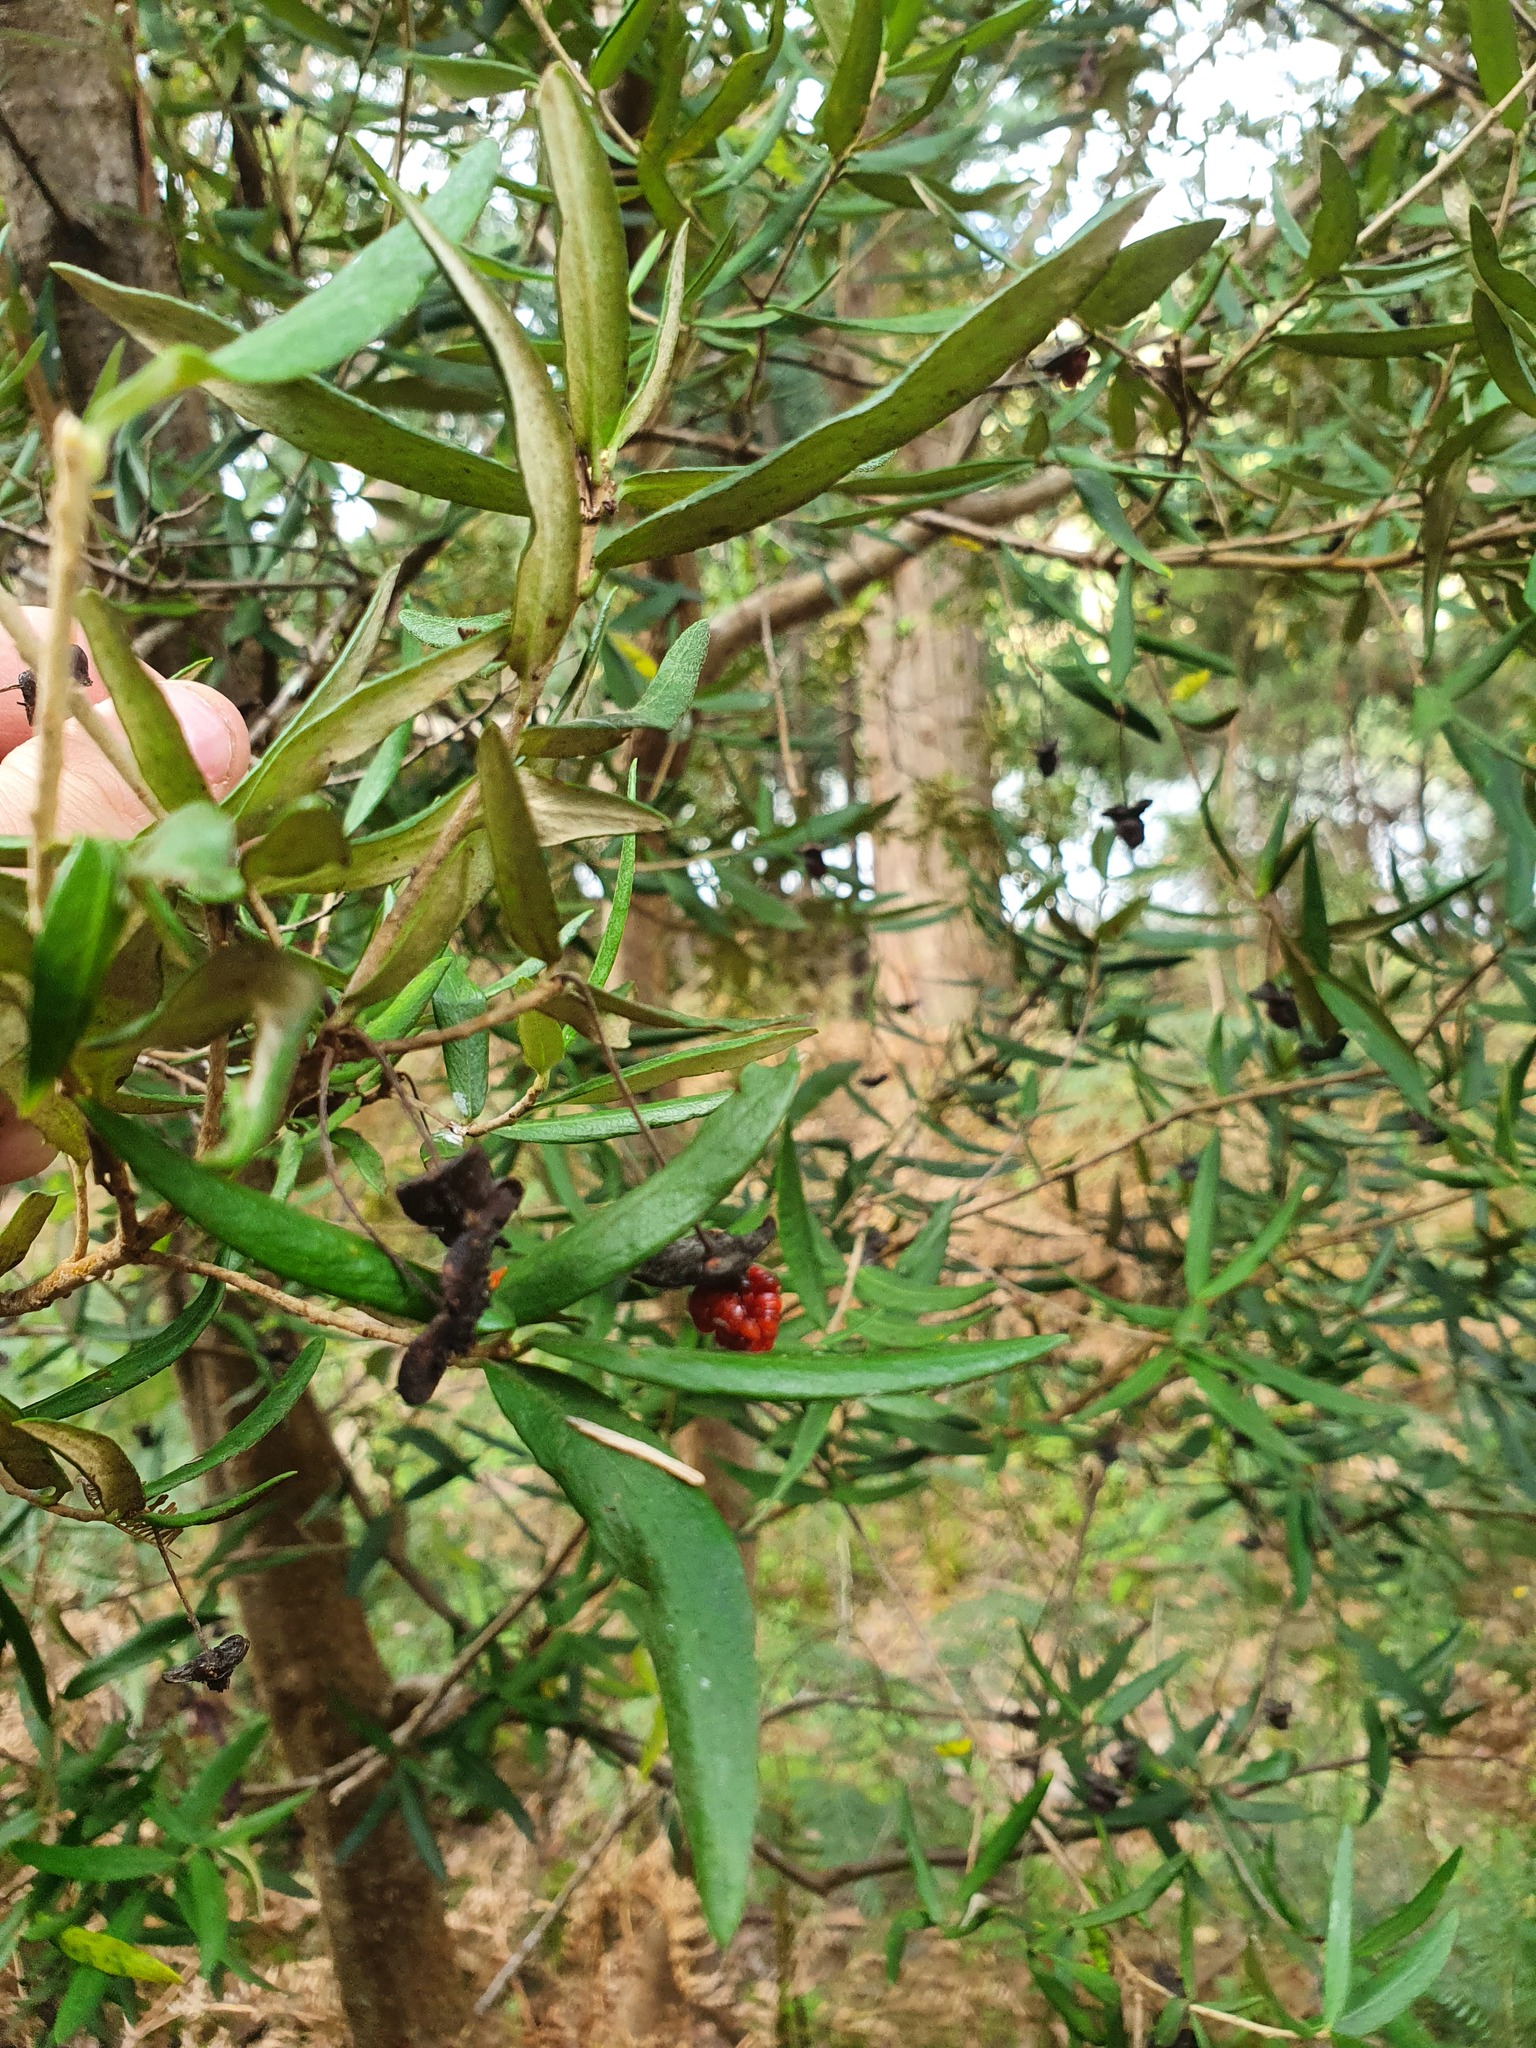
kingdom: Plantae
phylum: Tracheophyta
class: Magnoliopsida
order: Apiales
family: Pittosporaceae
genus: Pittosporum
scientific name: Pittosporum bicolor
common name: Tallowwood
